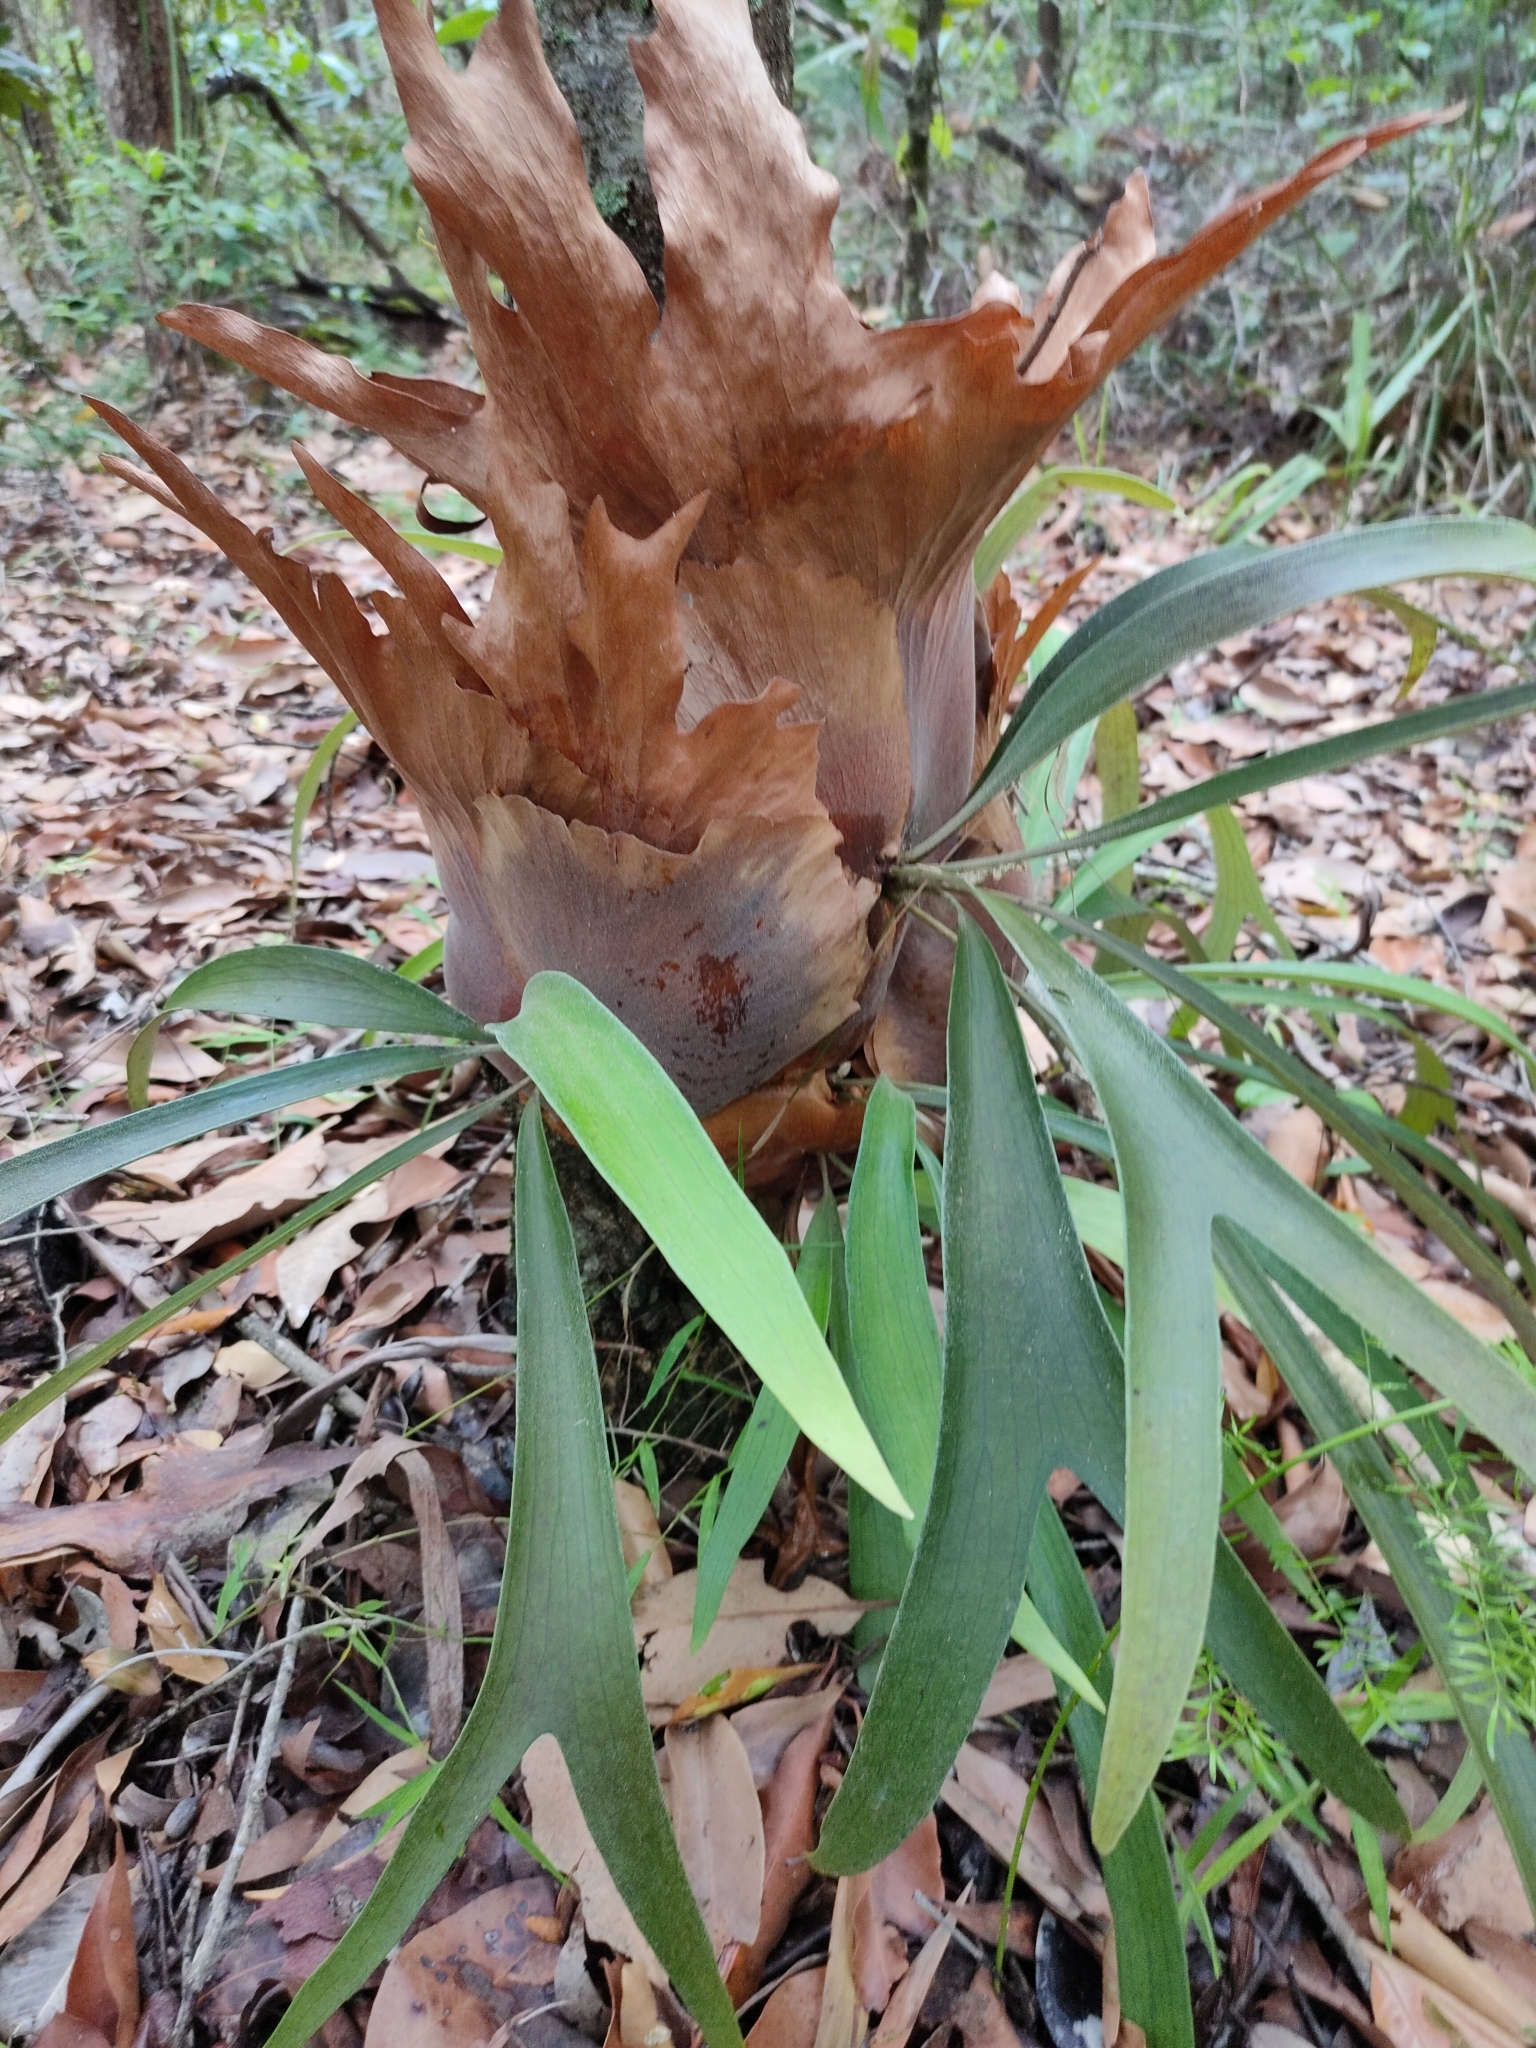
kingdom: Plantae
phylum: Tracheophyta
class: Polypodiopsida
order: Polypodiales
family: Polypodiaceae
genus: Platycerium
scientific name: Platycerium bifurcatum
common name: Elkhorn fern
